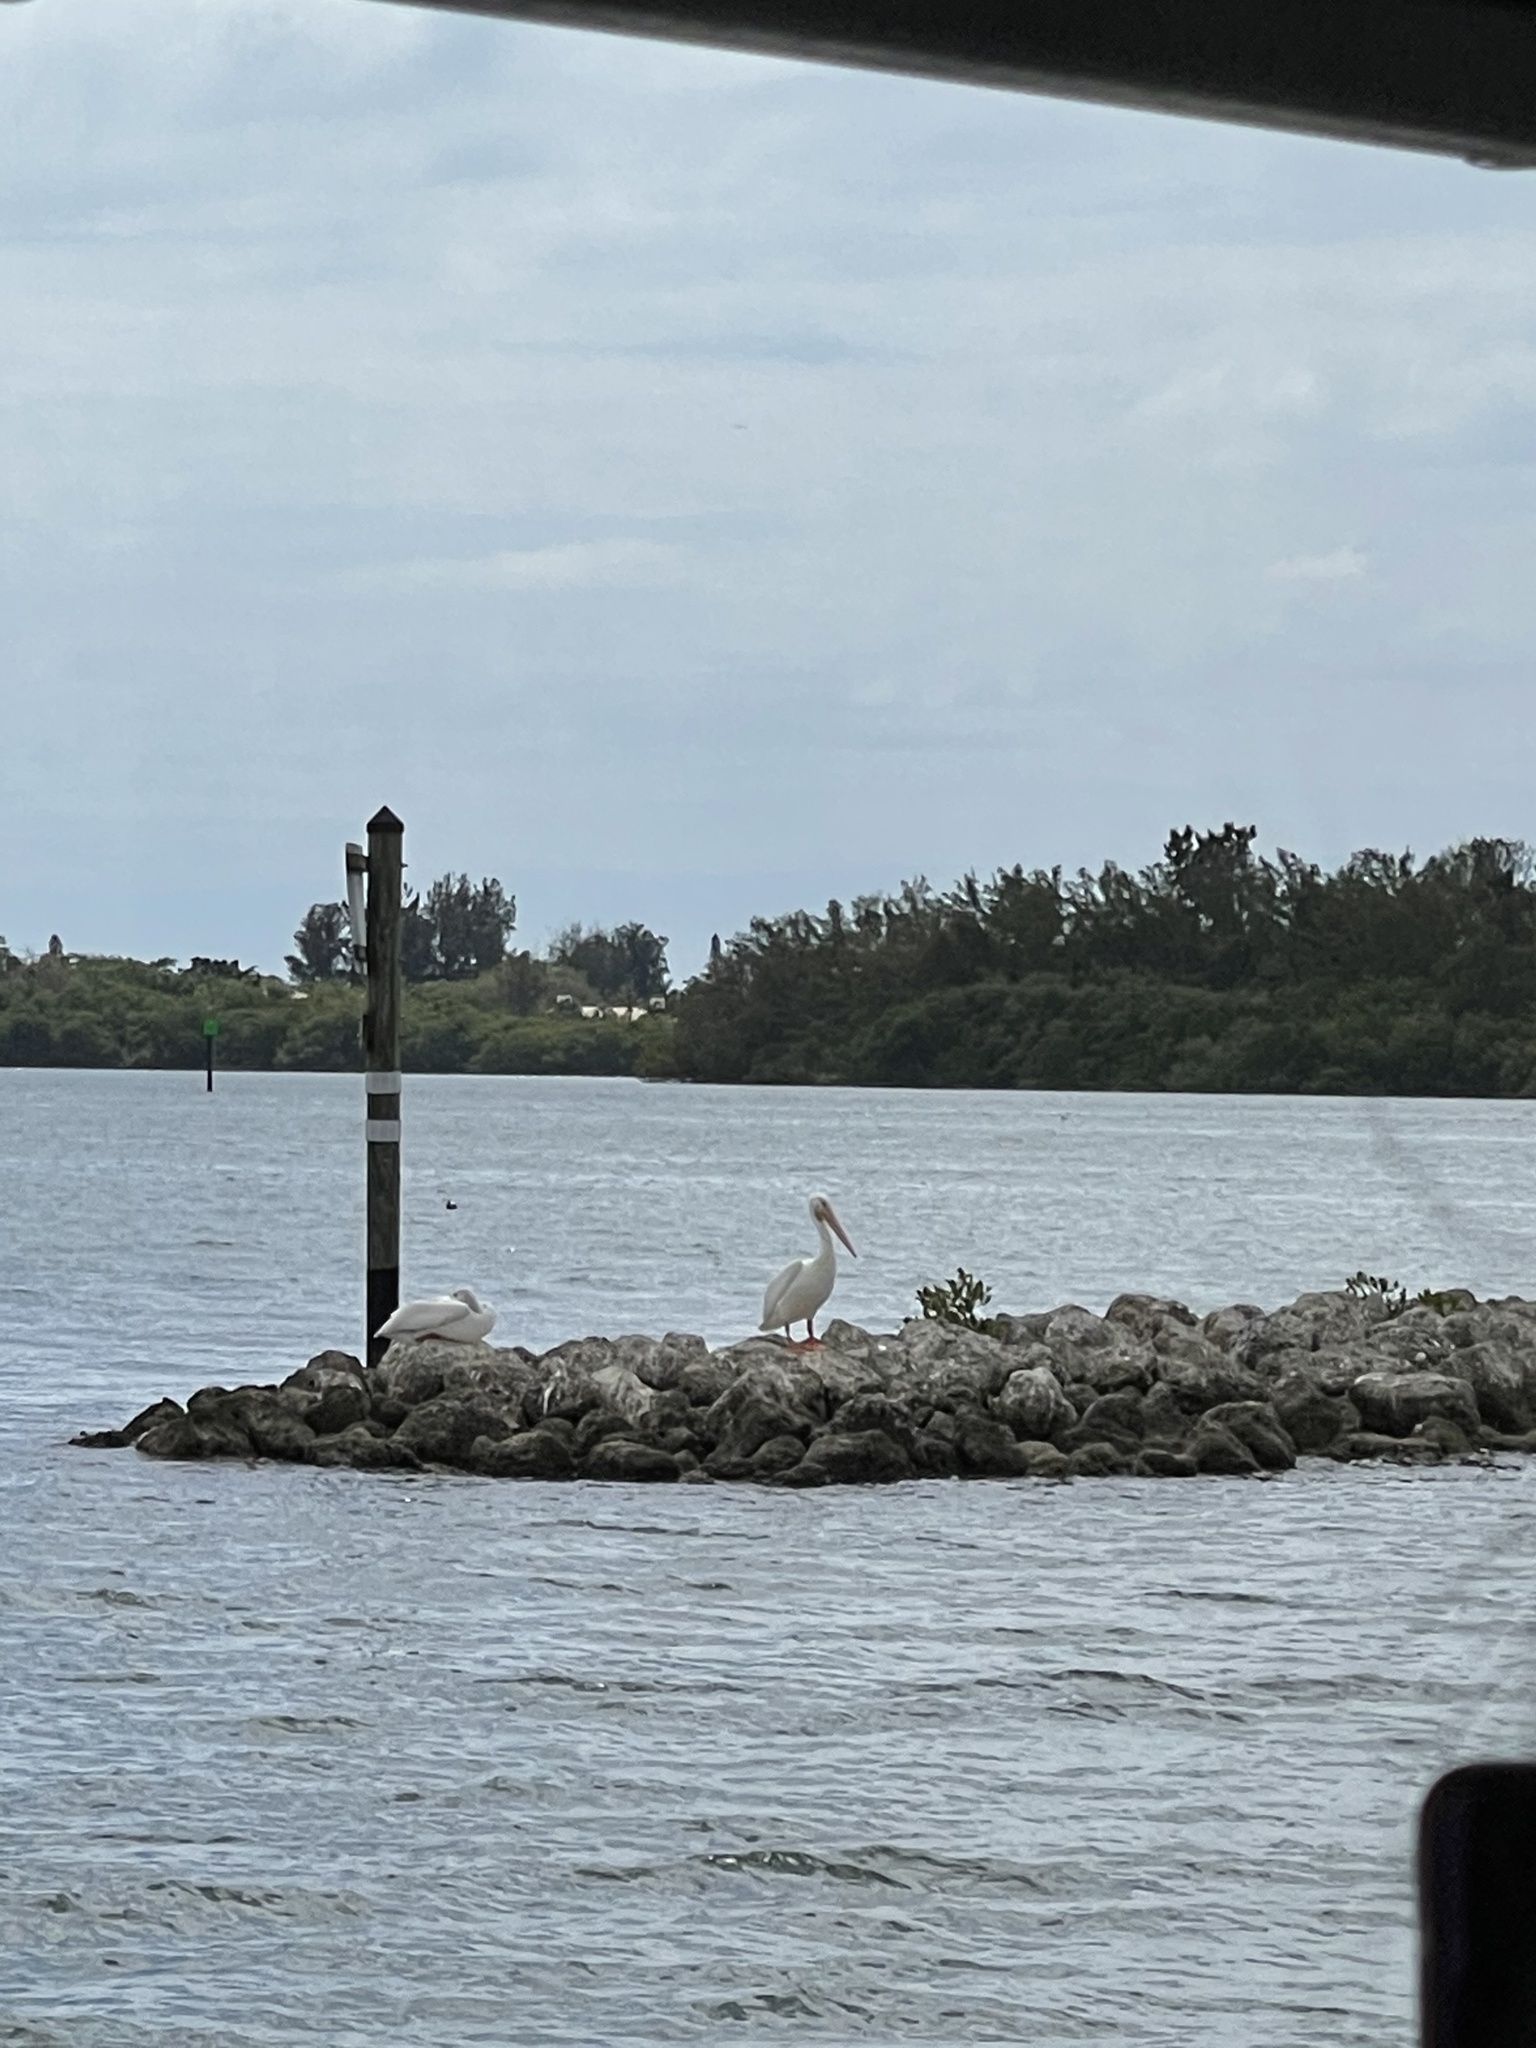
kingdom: Animalia
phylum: Chordata
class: Aves
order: Pelecaniformes
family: Pelecanidae
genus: Pelecanus
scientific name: Pelecanus erythrorhynchos
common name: American white pelican
